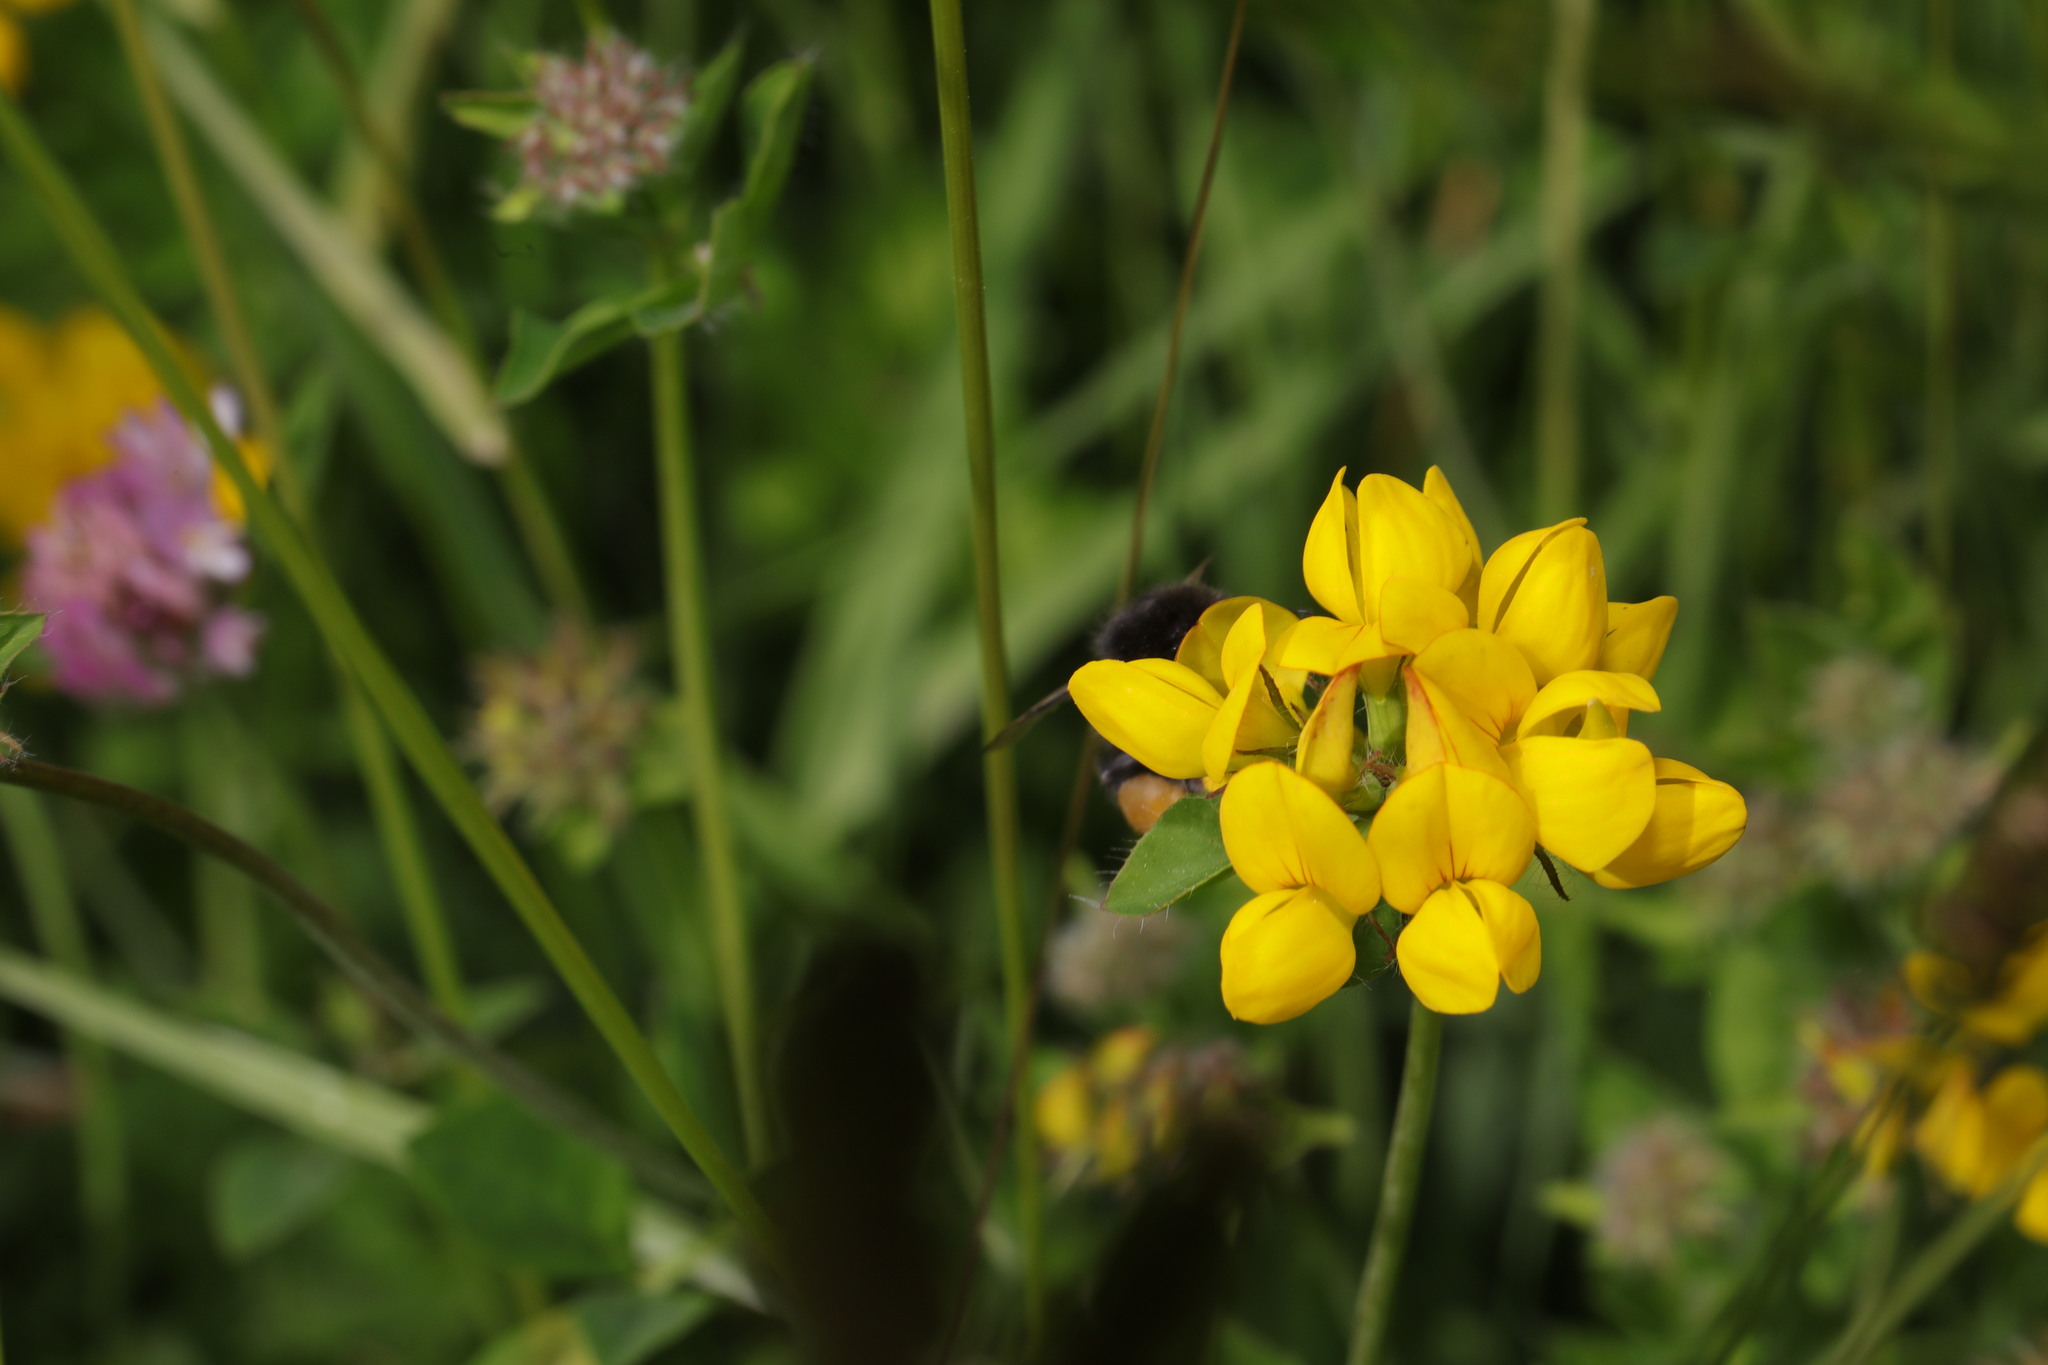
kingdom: Plantae
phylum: Tracheophyta
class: Magnoliopsida
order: Fabales
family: Fabaceae
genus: Lotus
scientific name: Lotus pedunculatus
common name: Greater birdsfoot-trefoil
